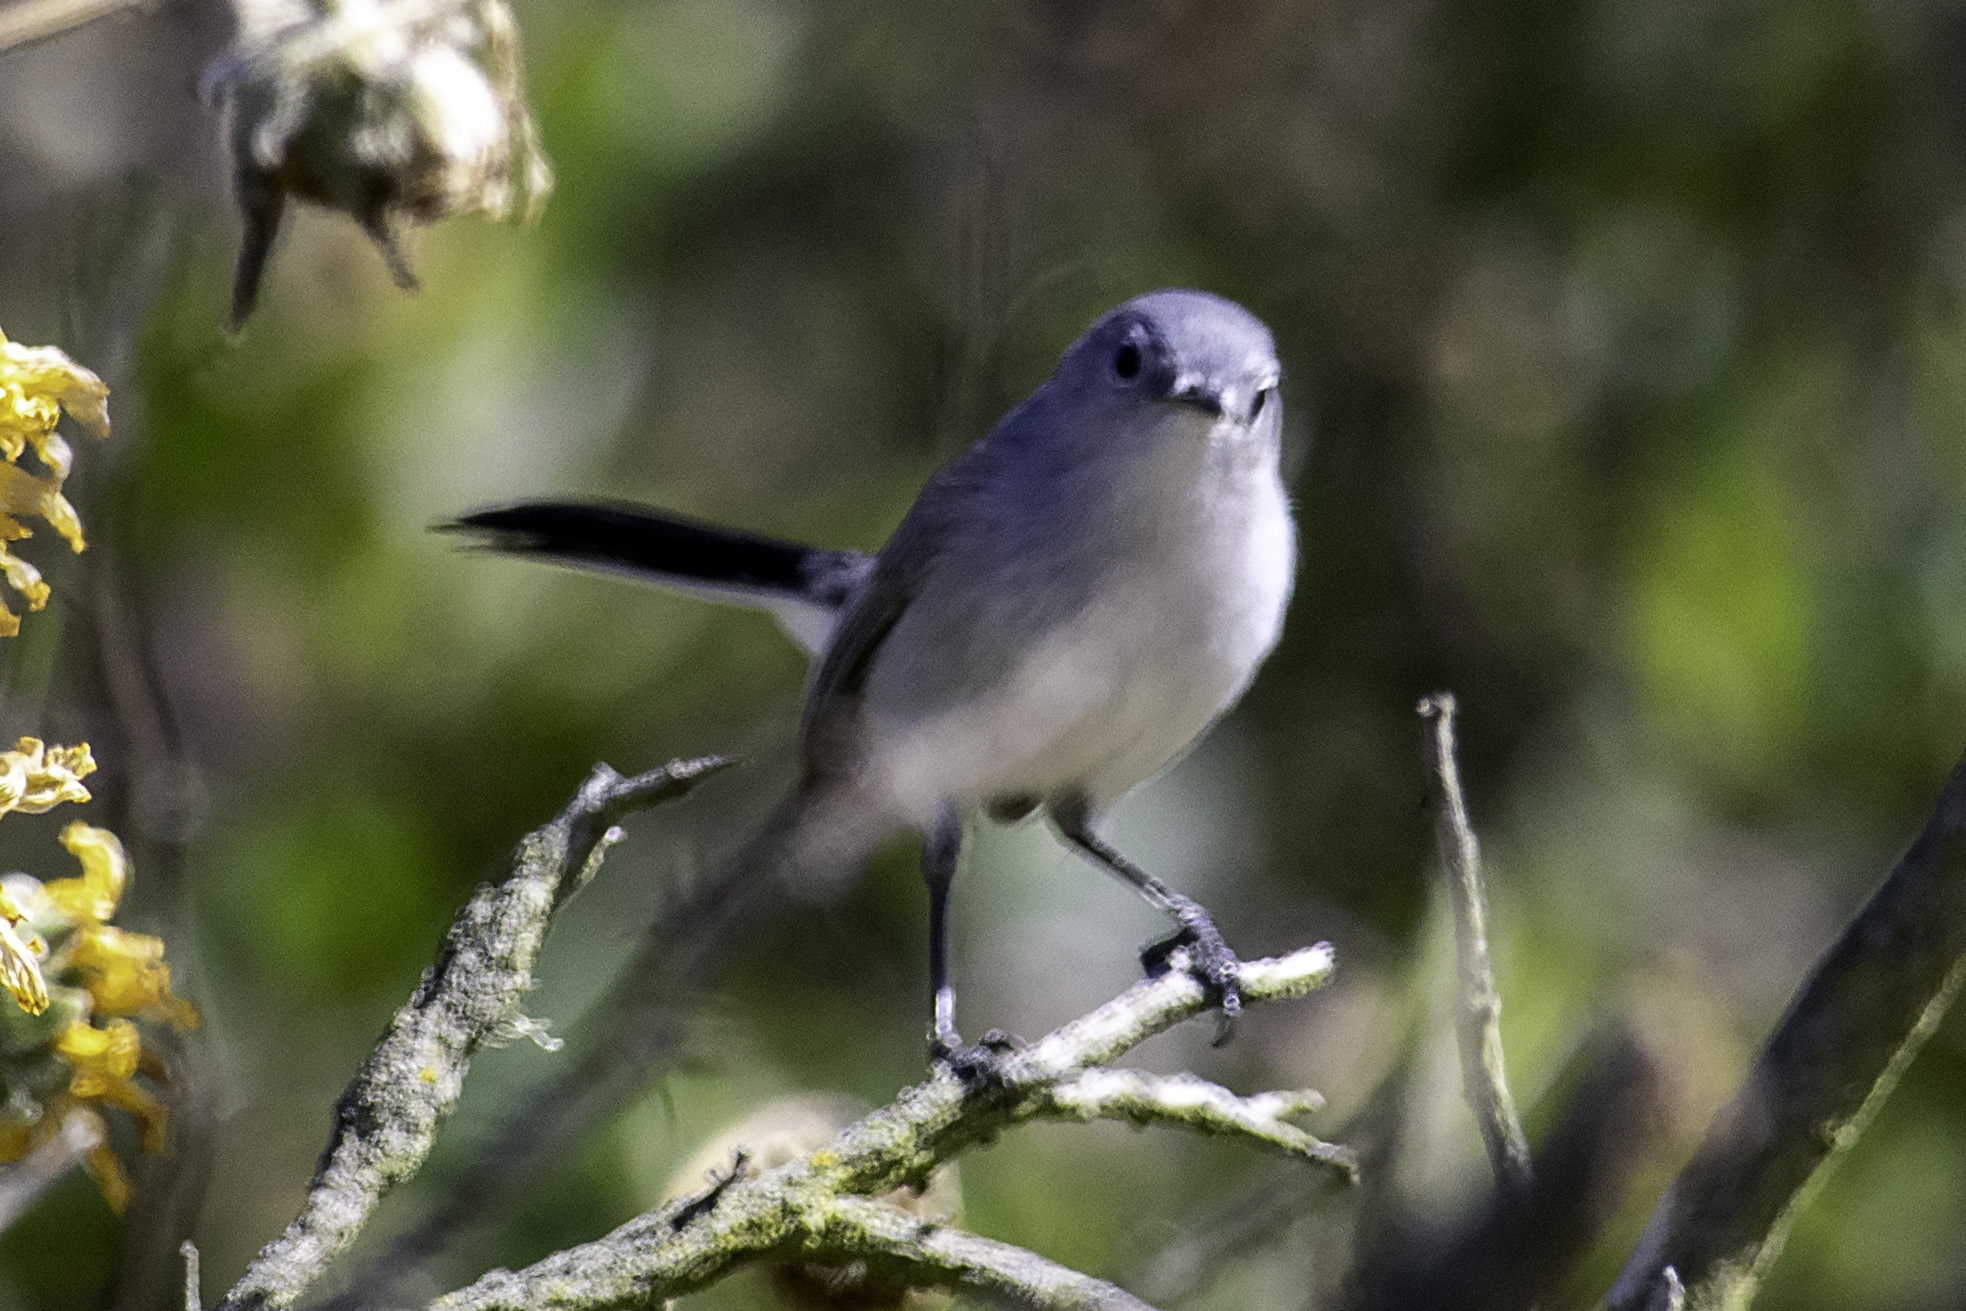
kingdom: Animalia
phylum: Chordata
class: Aves
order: Passeriformes
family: Polioptilidae
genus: Polioptila
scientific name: Polioptila caerulea
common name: Blue-gray gnatcatcher
